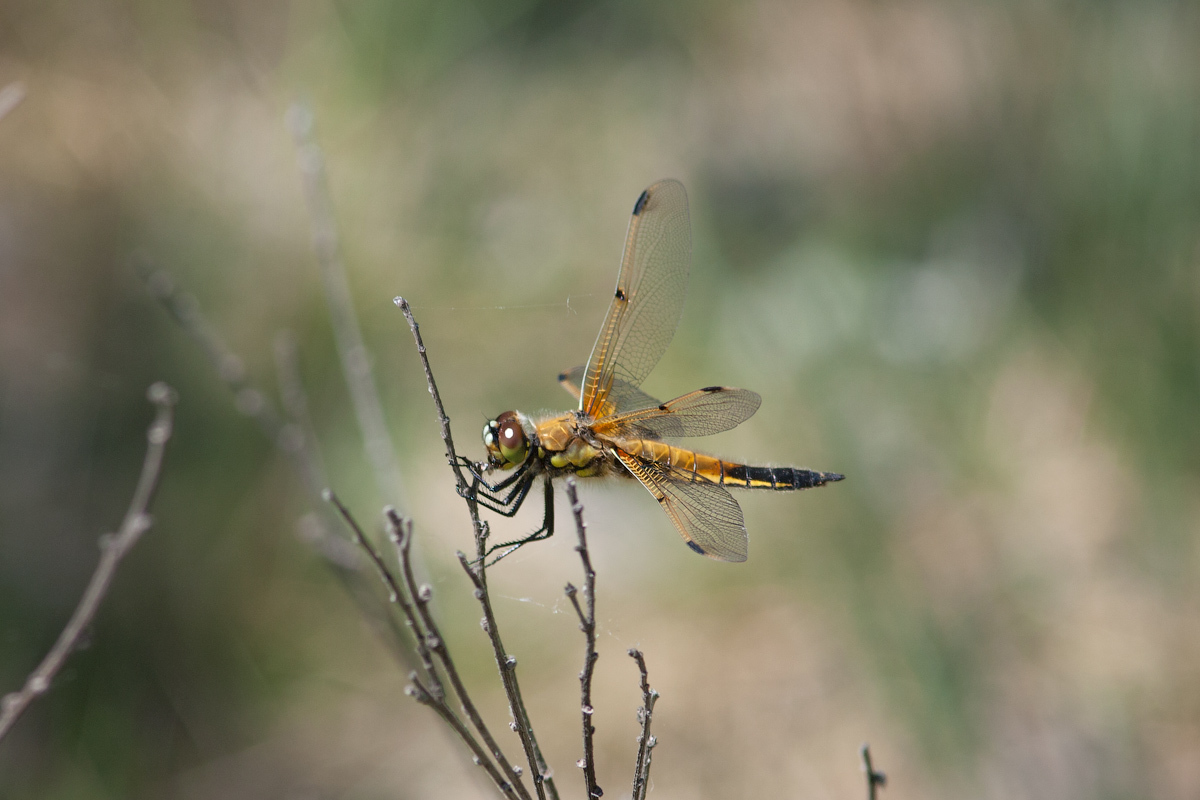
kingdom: Animalia
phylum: Arthropoda
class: Insecta
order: Odonata
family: Libellulidae
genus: Libellula
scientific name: Libellula quadrimaculata
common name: Four-spotted chaser
